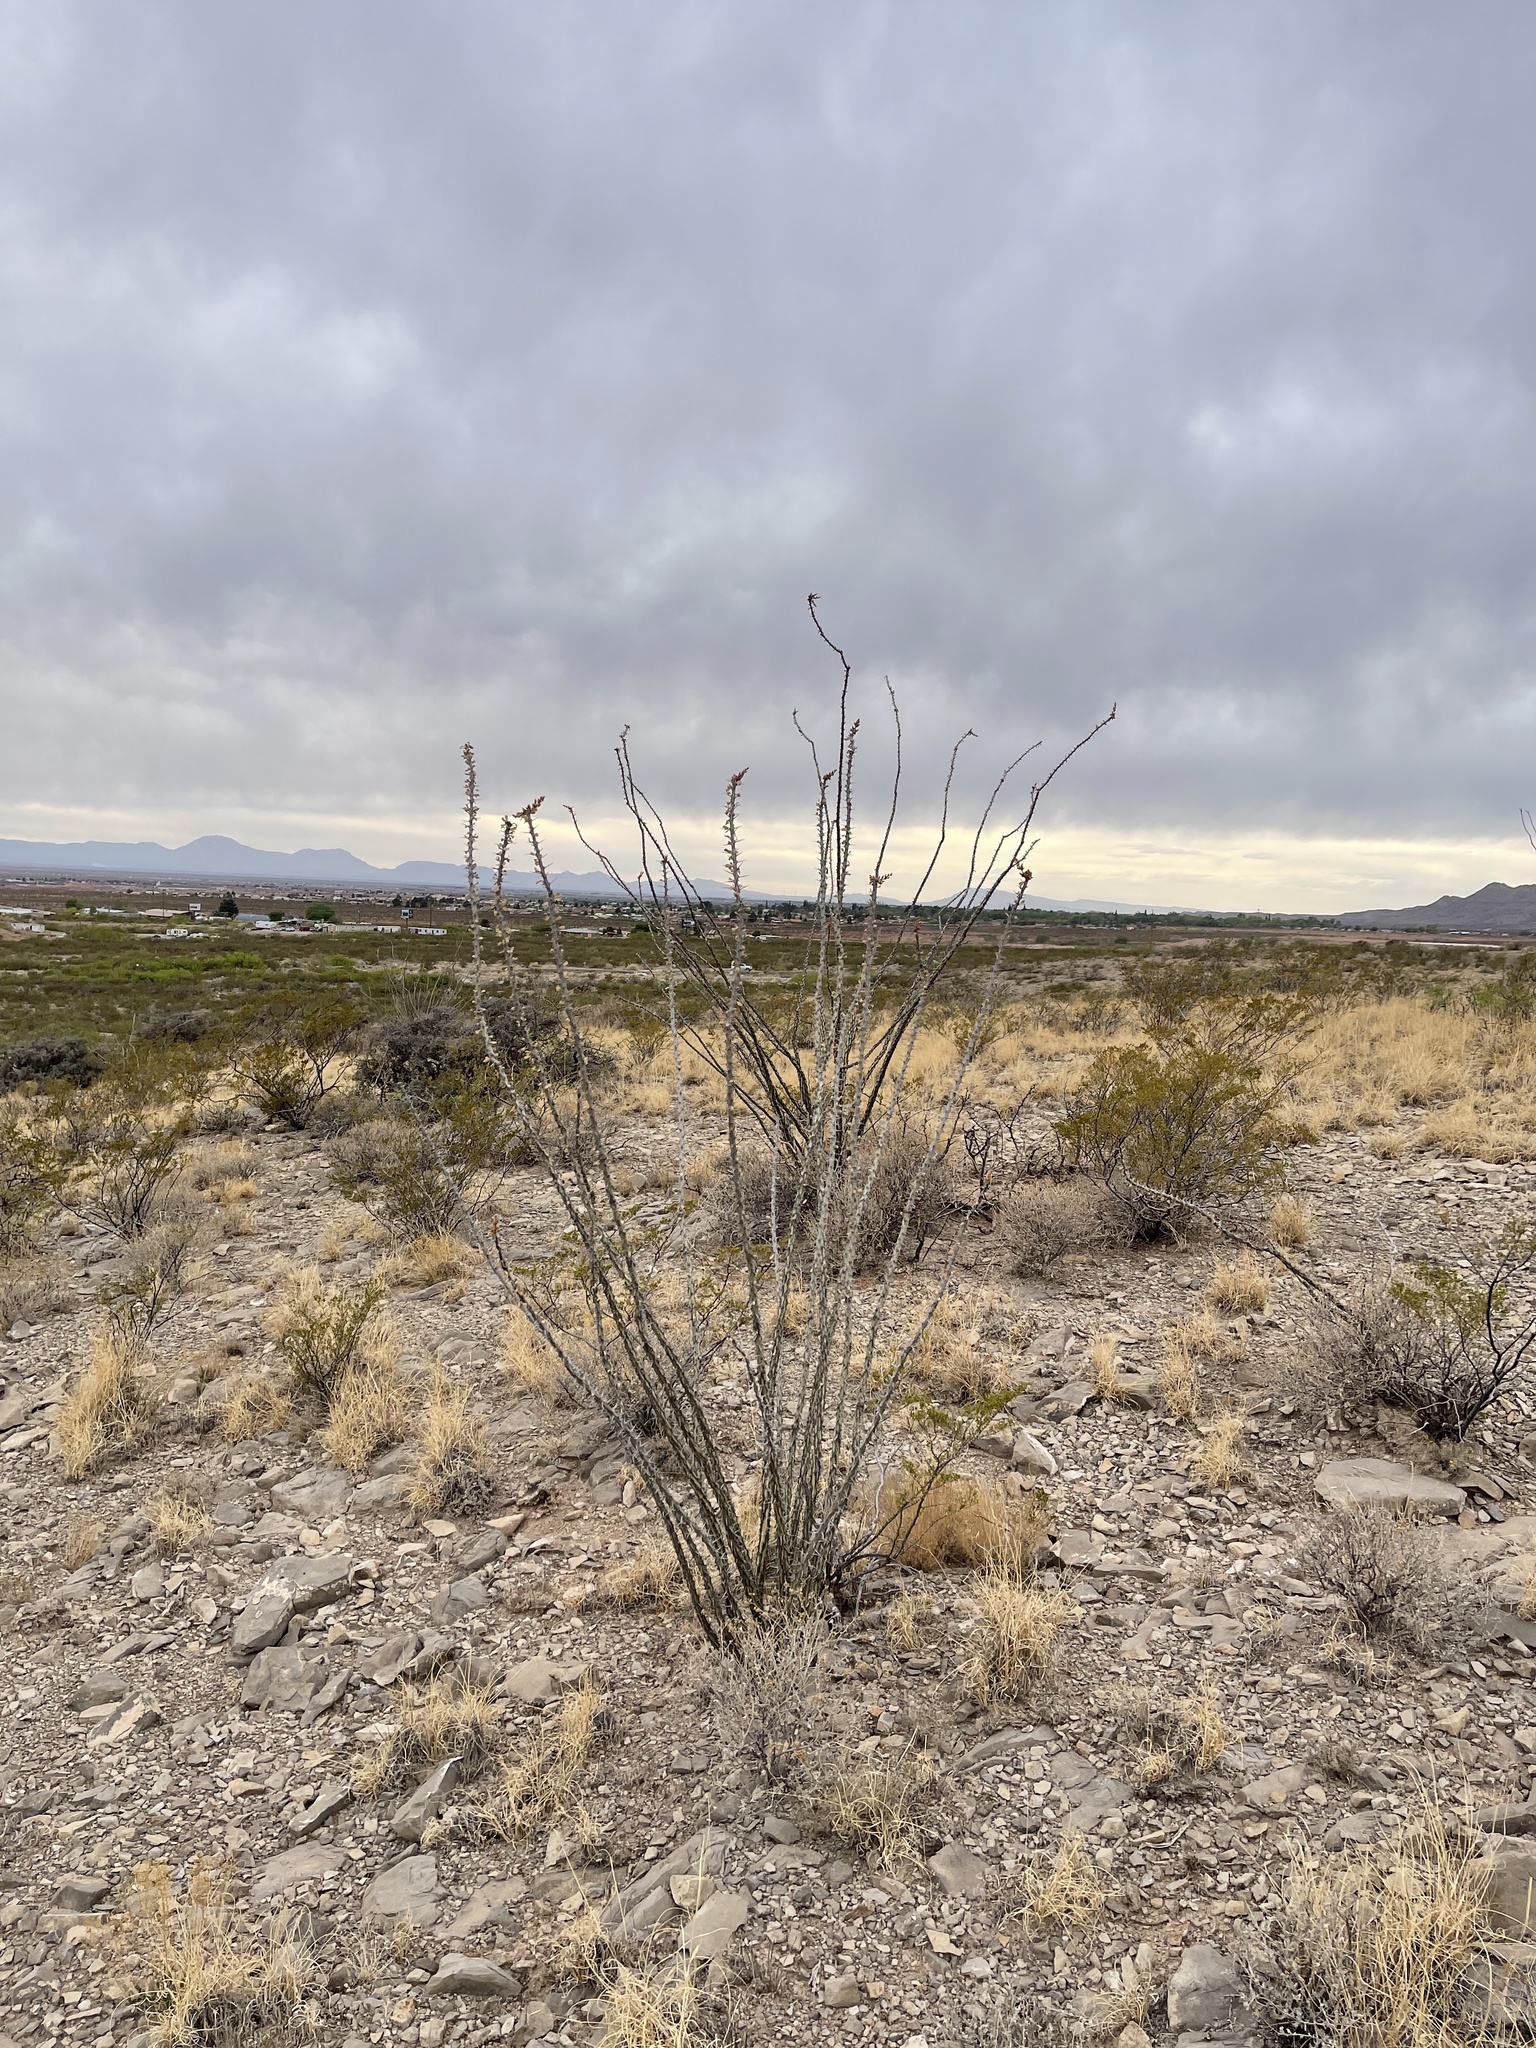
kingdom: Plantae
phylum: Tracheophyta
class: Magnoliopsida
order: Ericales
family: Fouquieriaceae
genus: Fouquieria
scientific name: Fouquieria splendens
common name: Vine-cactus
